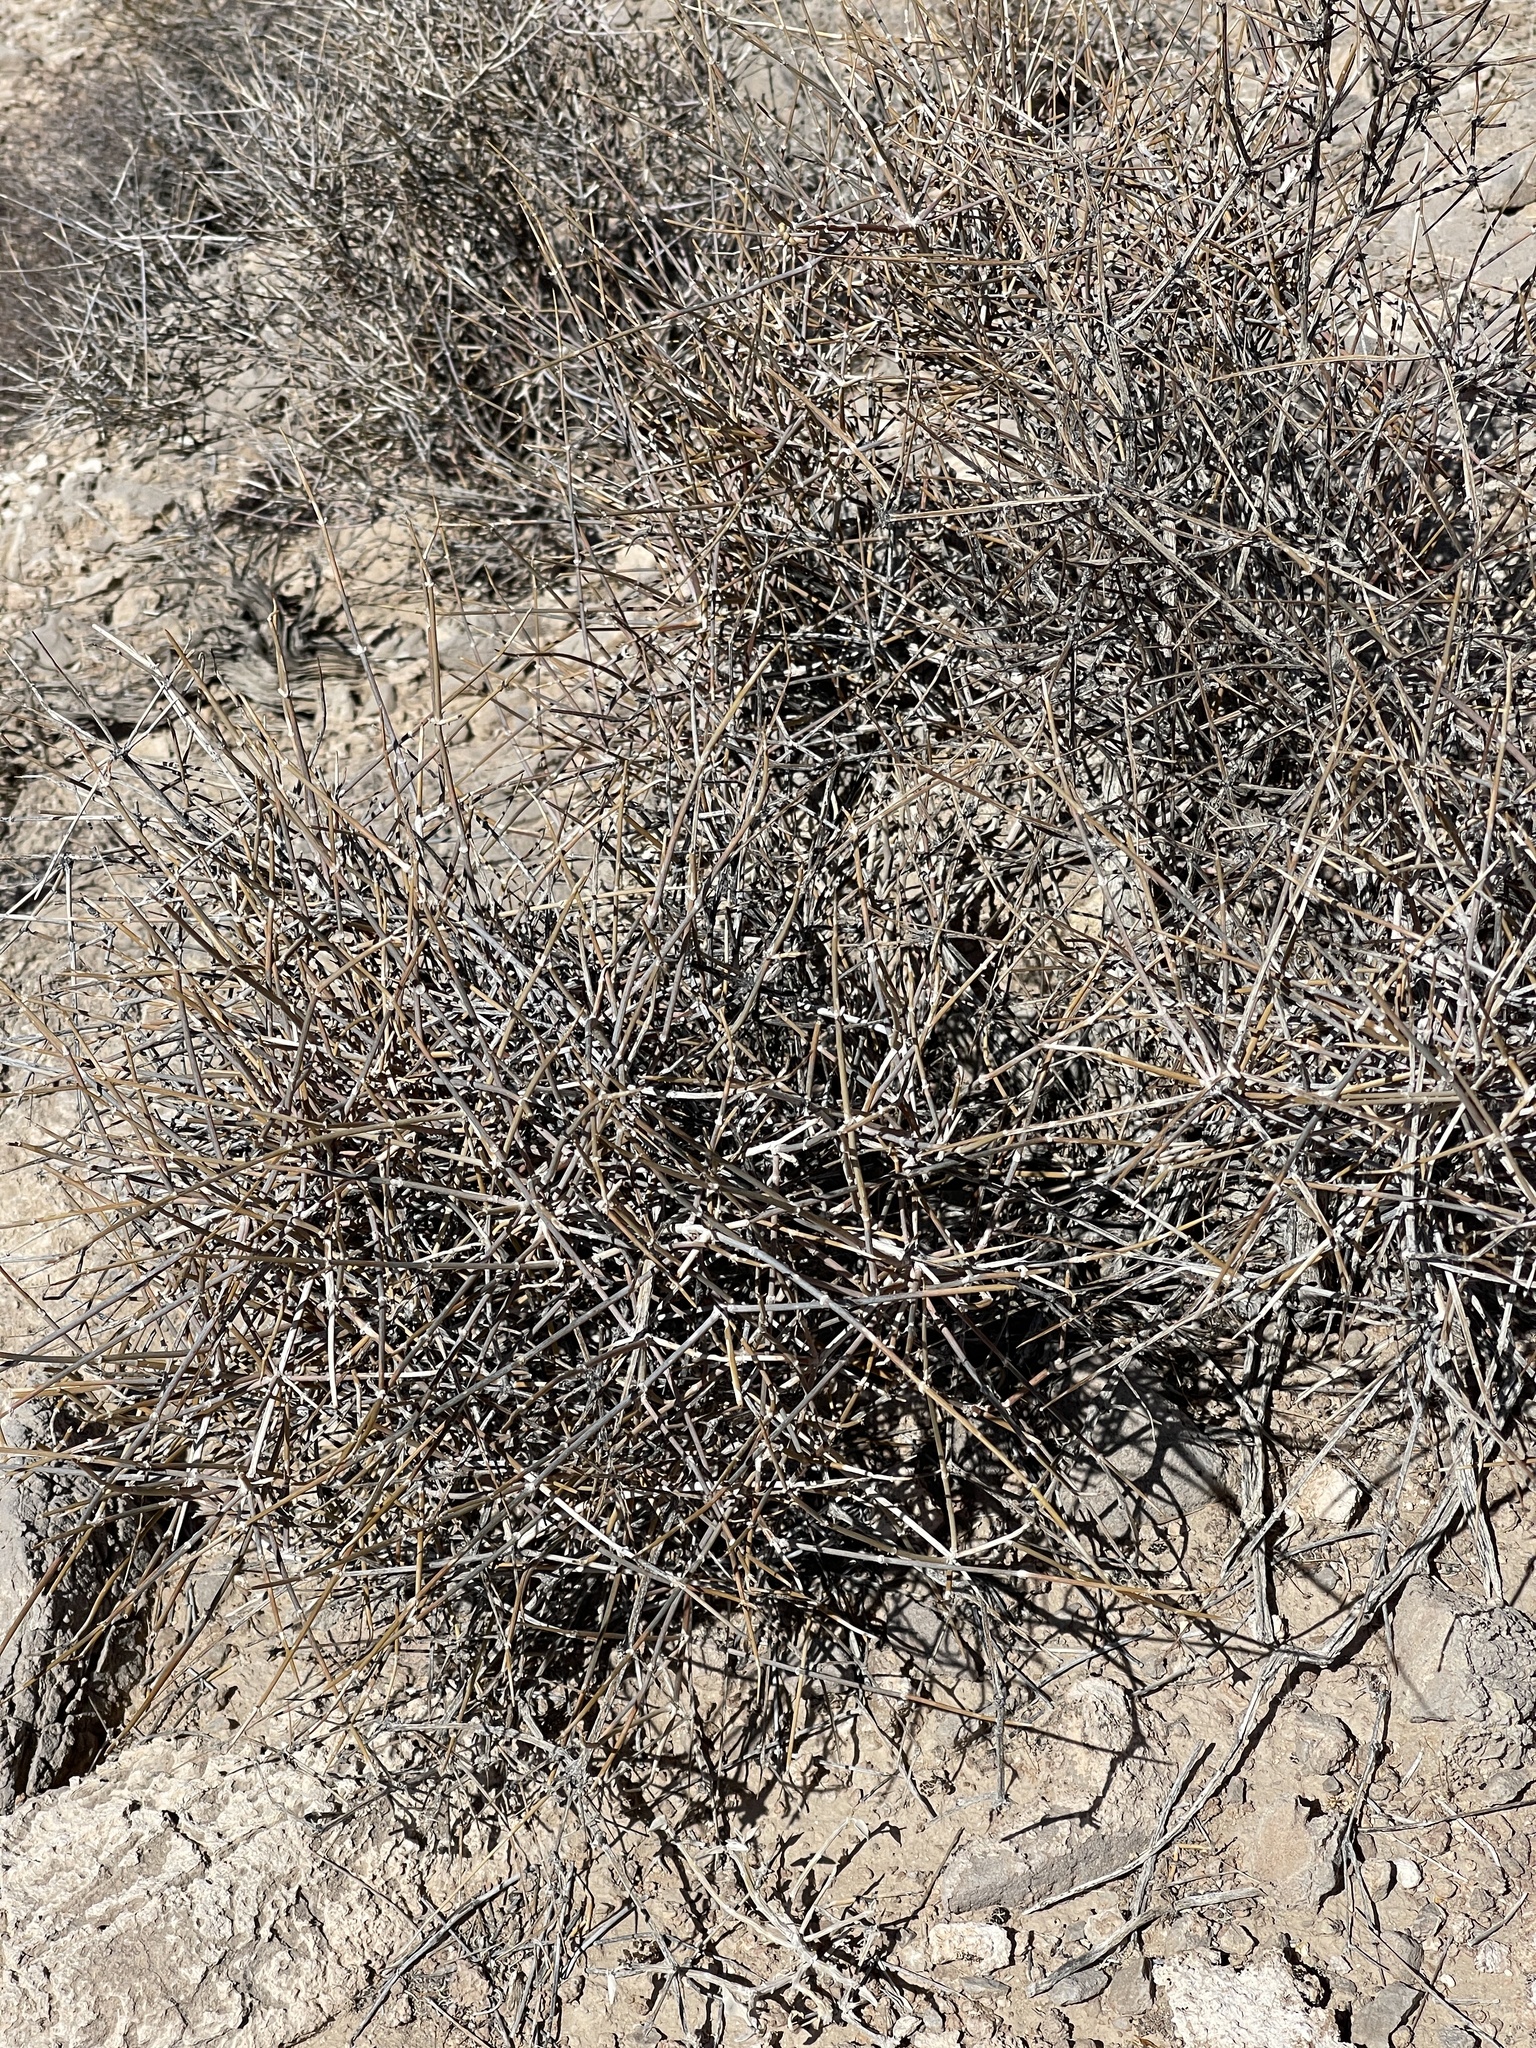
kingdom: Plantae
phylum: Tracheophyta
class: Gnetopsida
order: Ephedrales
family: Ephedraceae
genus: Ephedra
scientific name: Ephedra nevadensis
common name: Gray ephedra
